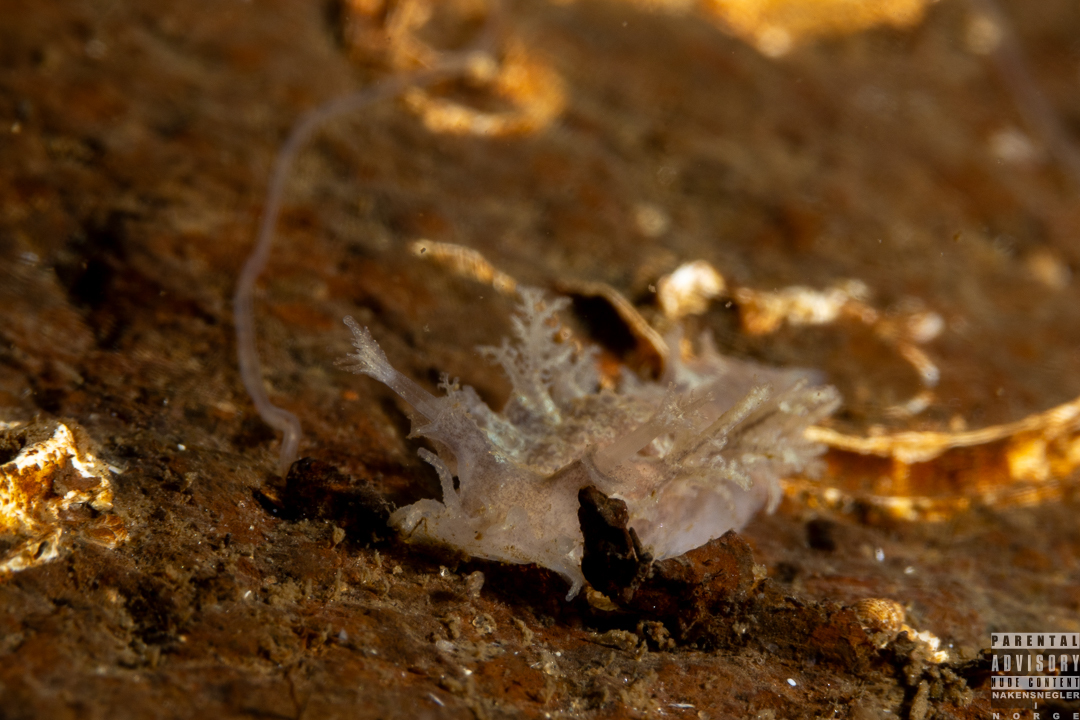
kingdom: Animalia
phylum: Mollusca
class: Gastropoda
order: Nudibranchia
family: Tritoniidae
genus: Duvaucelia
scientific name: Duvaucelia plebeia
